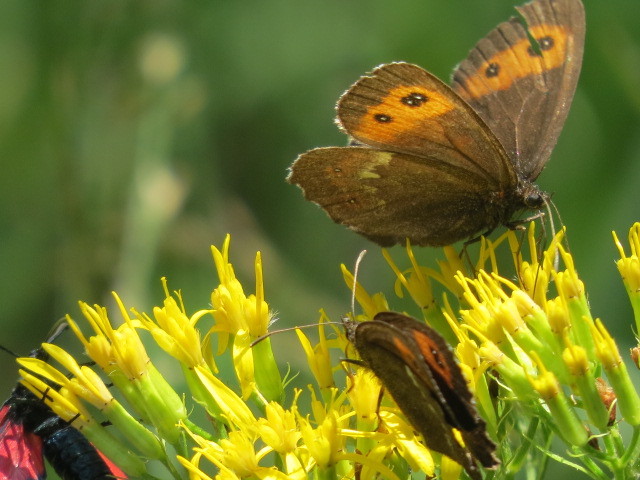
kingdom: Animalia
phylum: Arthropoda
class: Insecta
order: Lepidoptera
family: Nymphalidae
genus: Erebia
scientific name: Erebia ligea
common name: Arran brown
